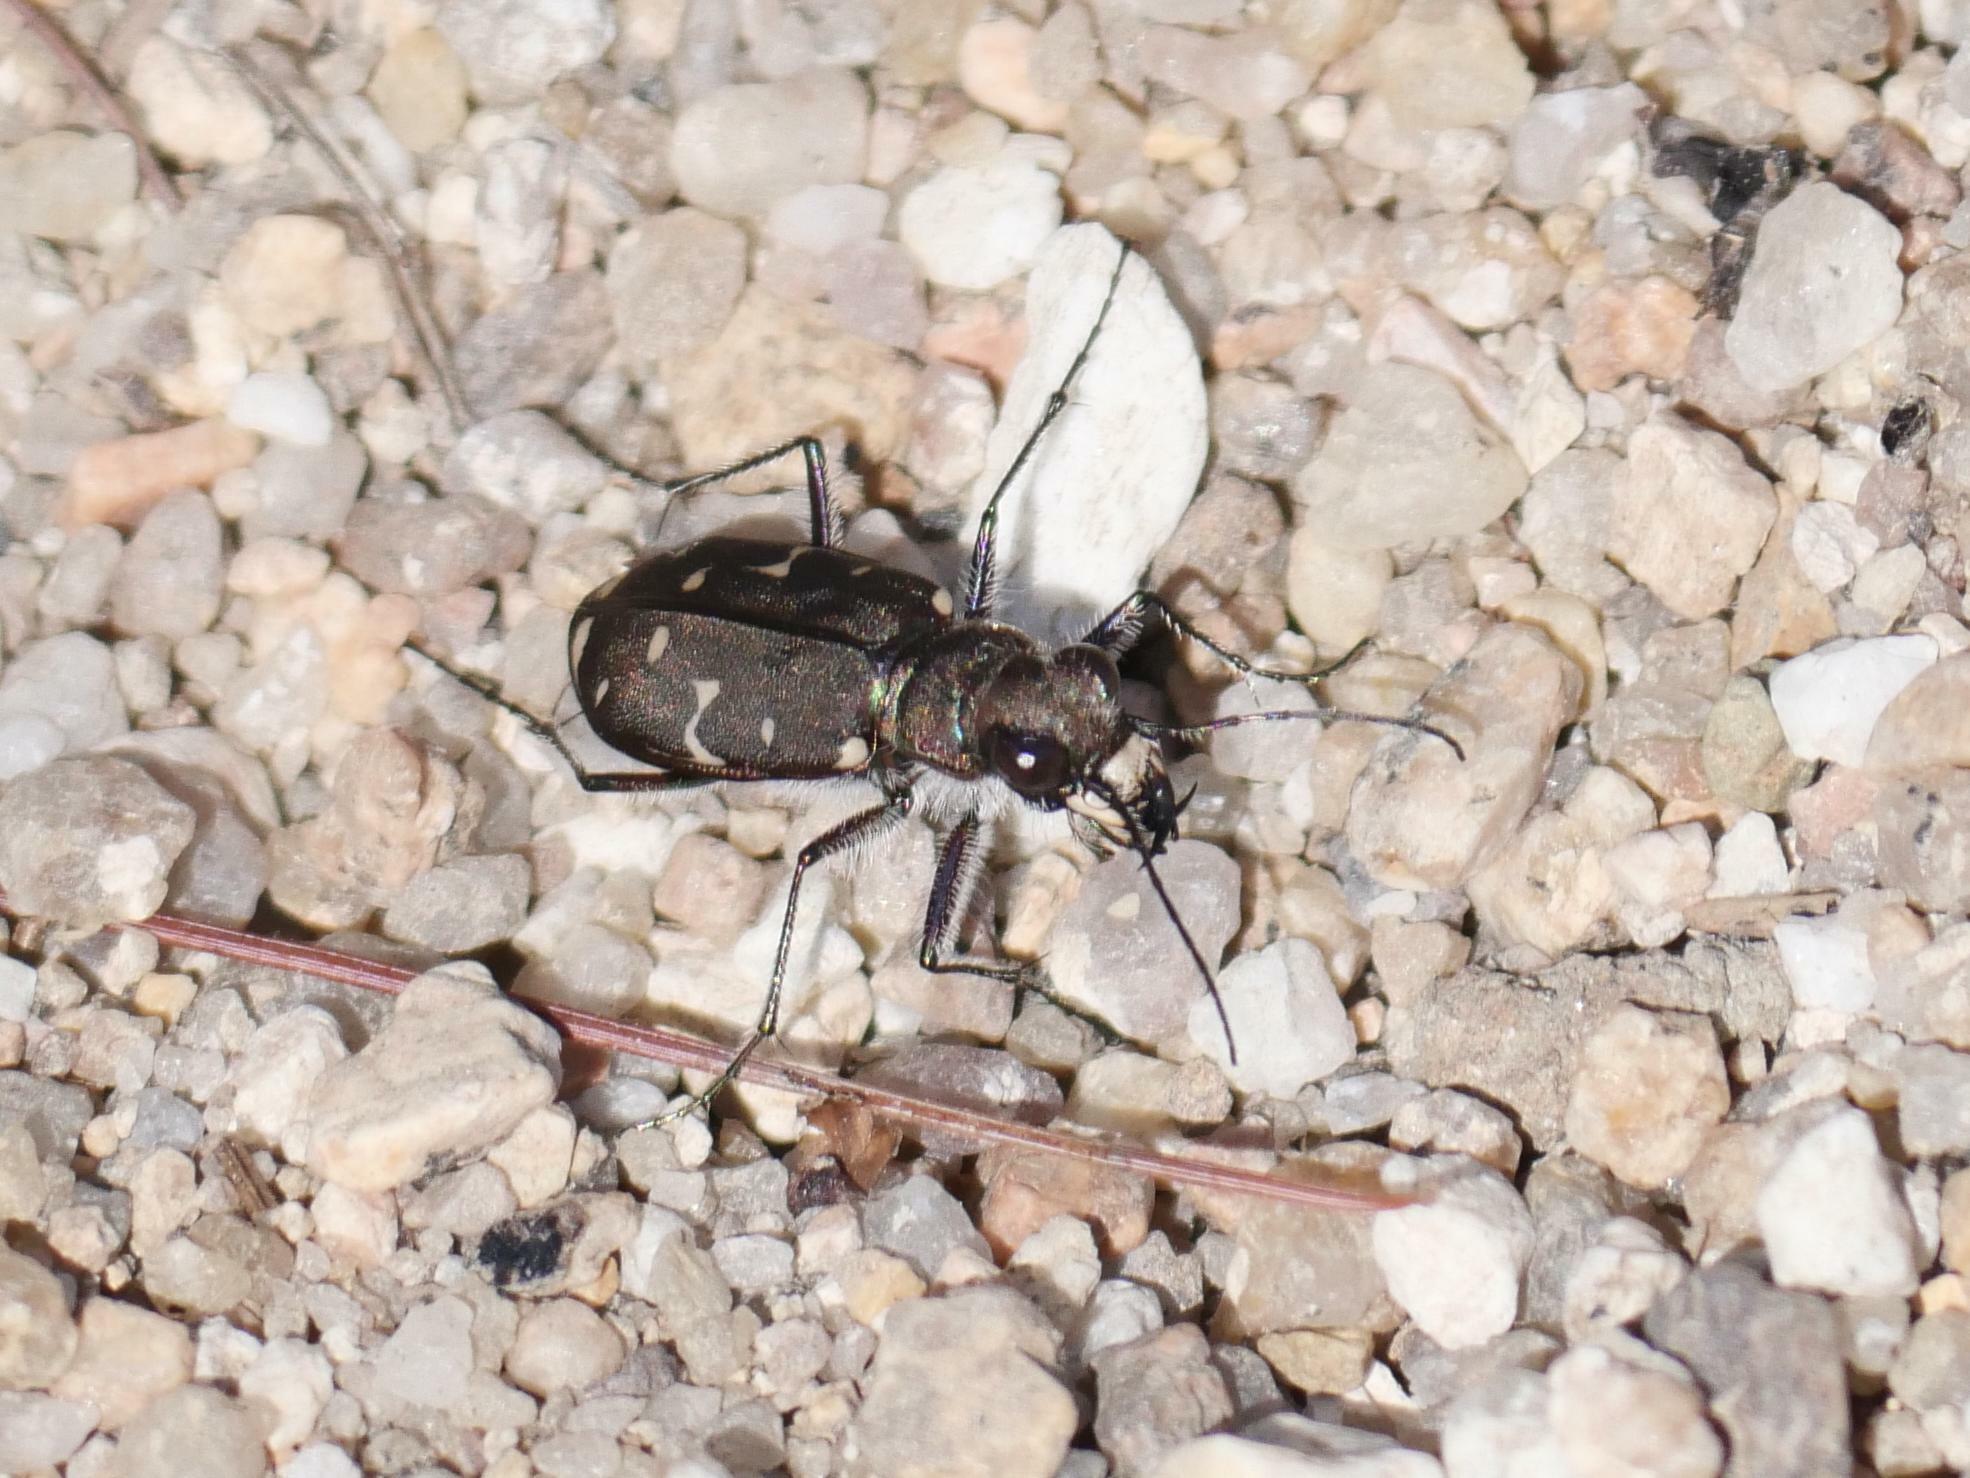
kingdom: Animalia
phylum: Arthropoda
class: Insecta
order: Coleoptera
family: Carabidae
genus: Cicindela
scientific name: Cicindela duodecimguttata
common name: Twelve-spotted tiger beetle
